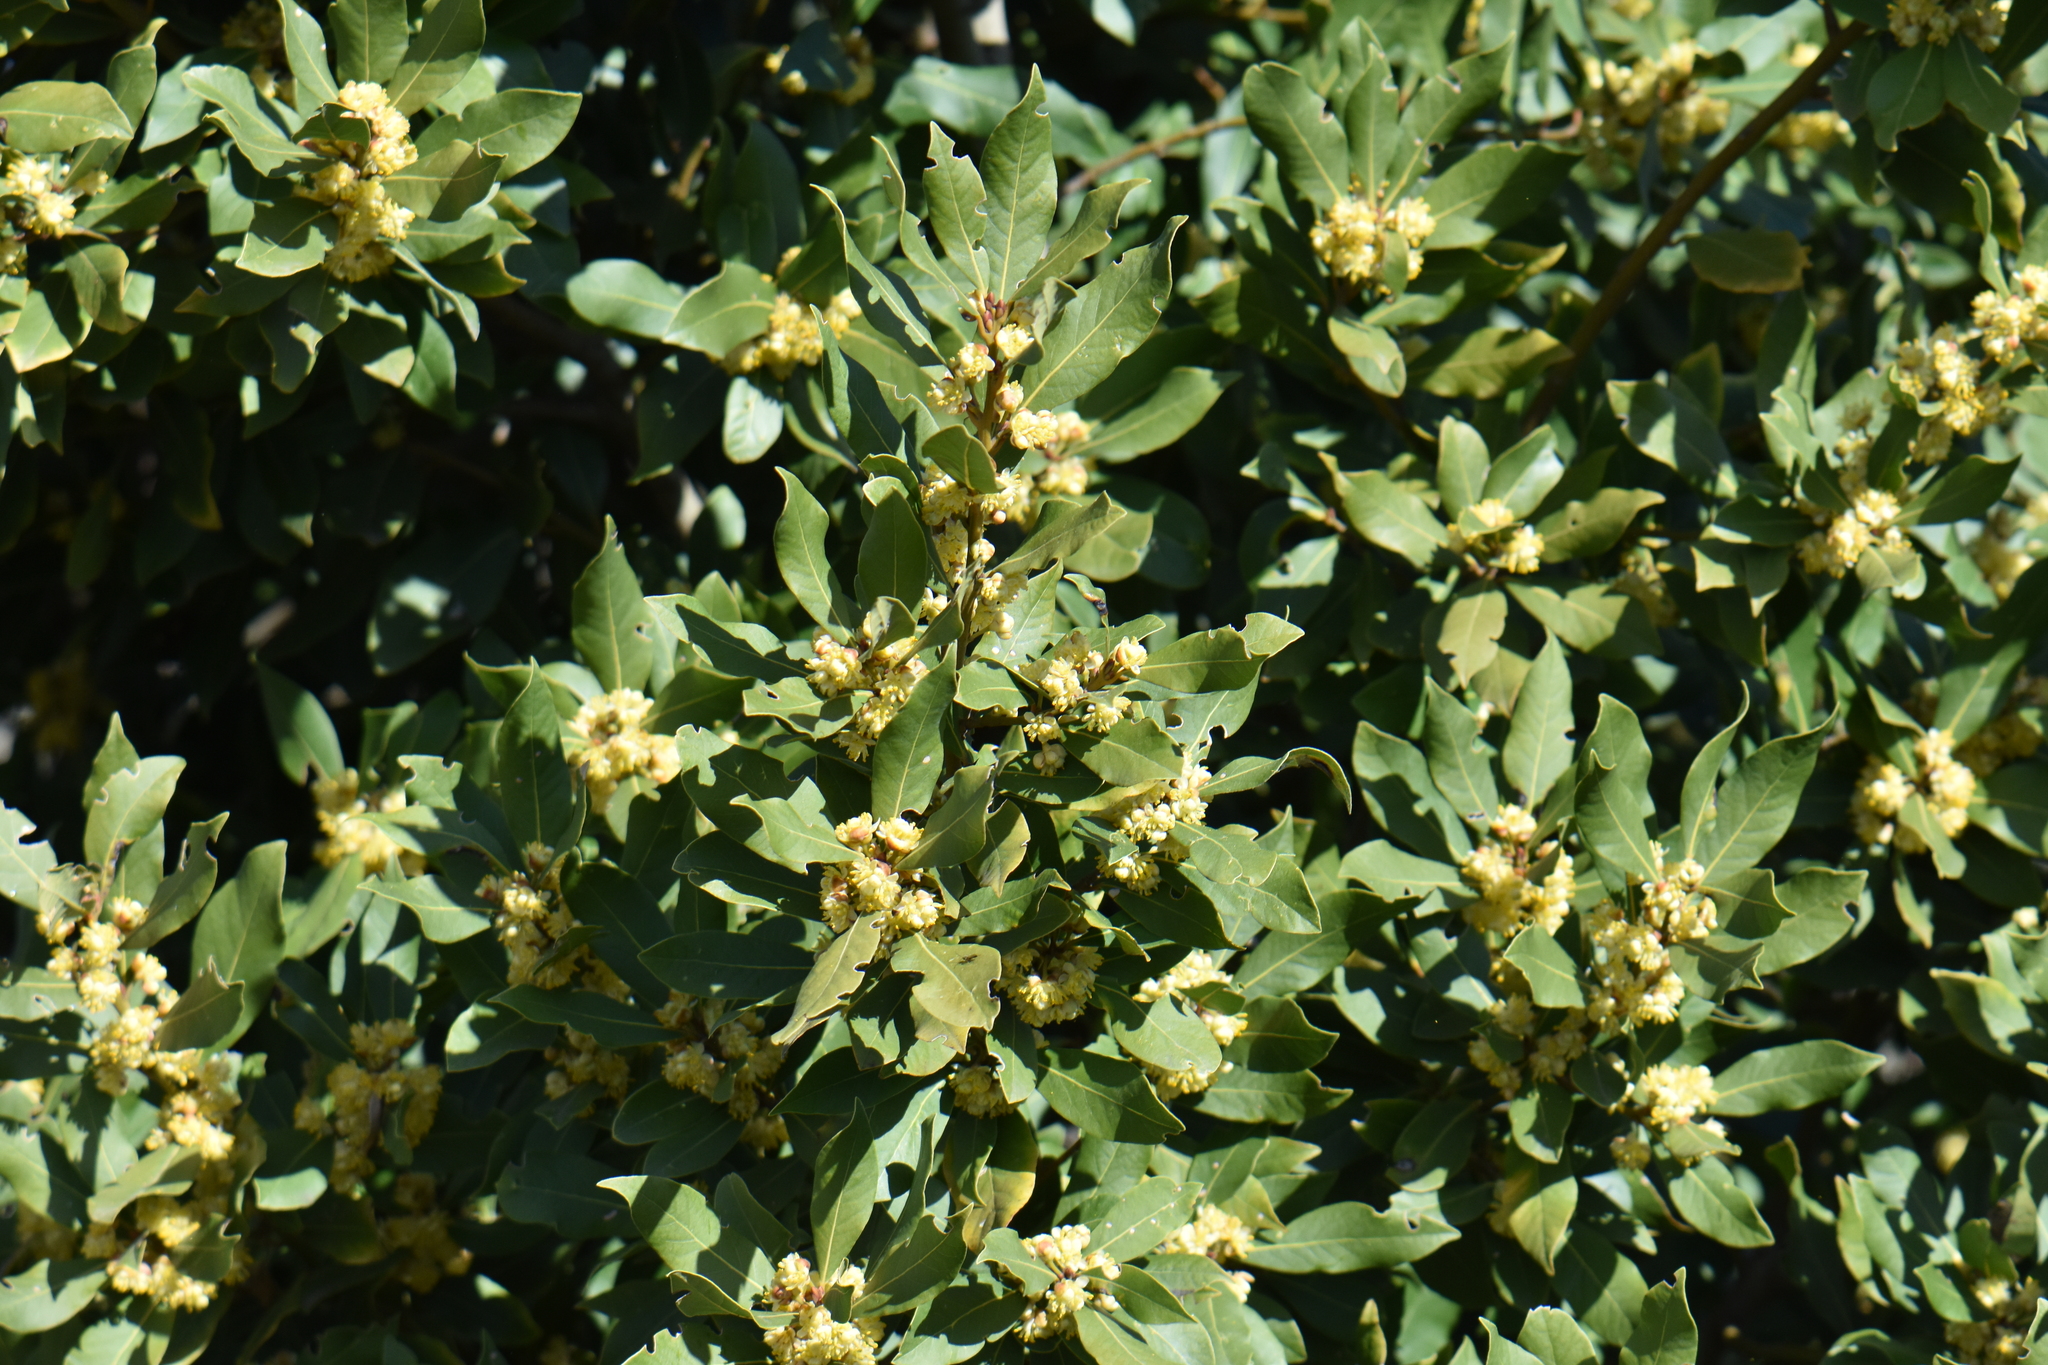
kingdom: Plantae
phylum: Tracheophyta
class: Magnoliopsida
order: Laurales
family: Lauraceae
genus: Laurus
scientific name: Laurus nobilis
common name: Bay
